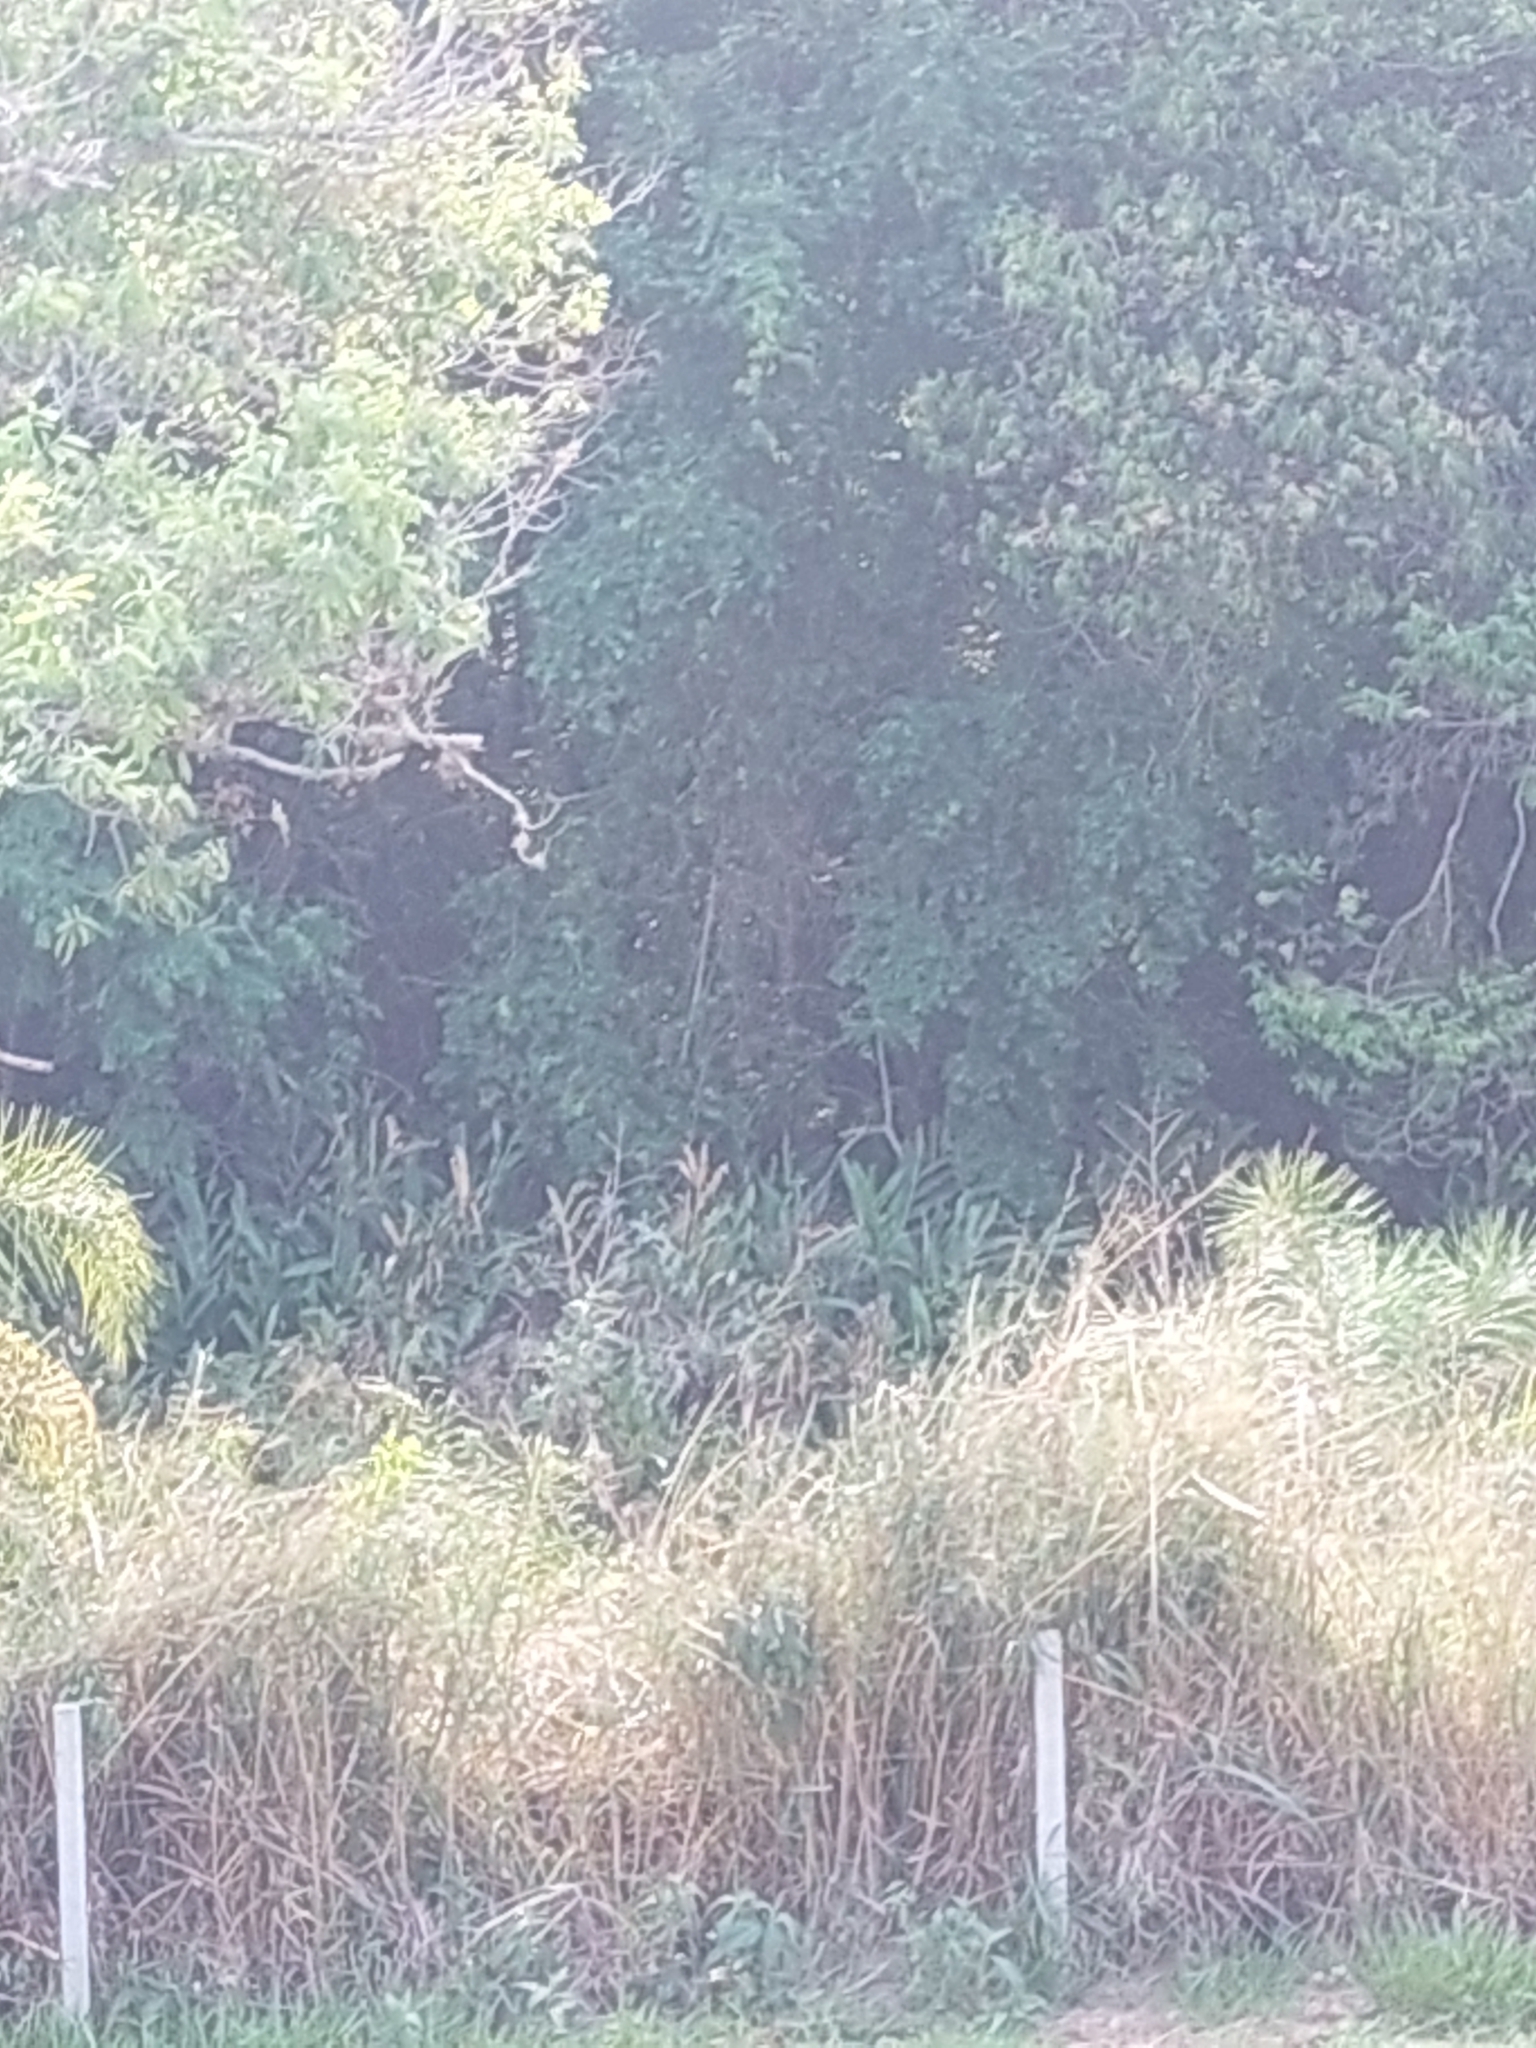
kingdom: Plantae
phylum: Tracheophyta
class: Liliopsida
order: Zingiberales
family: Zingiberaceae
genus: Hedychium
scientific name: Hedychium coronarium
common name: White garland-lily
